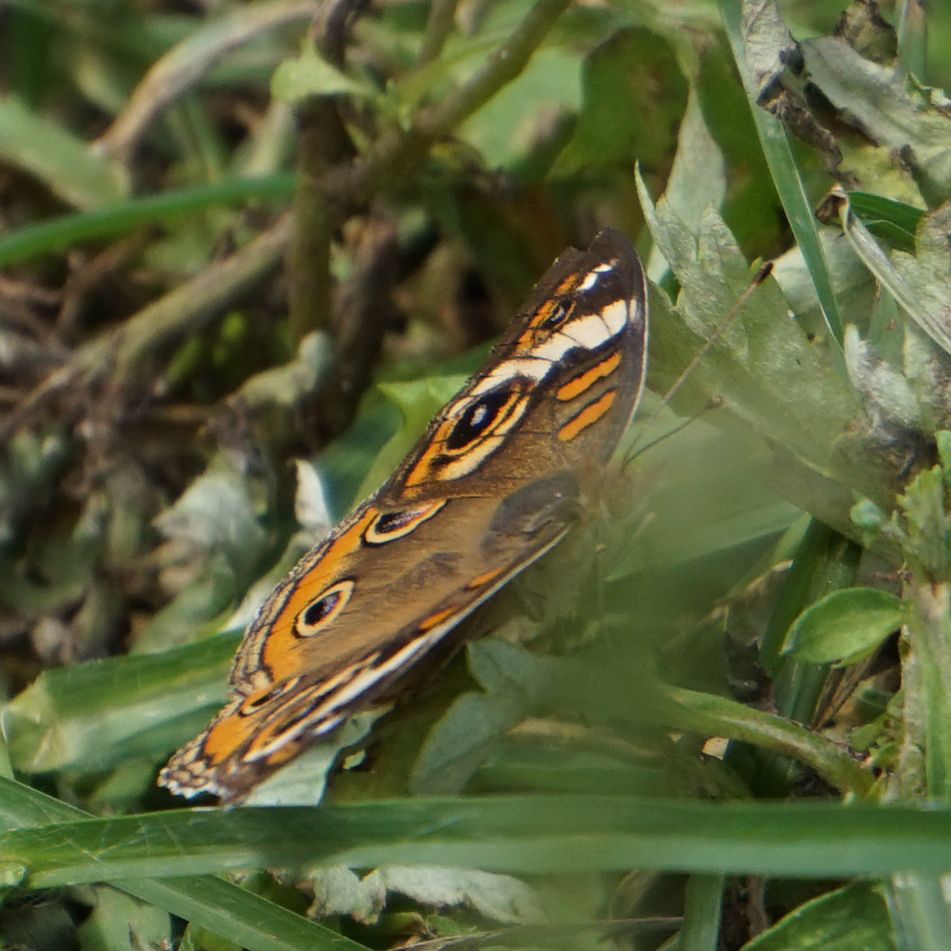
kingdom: Animalia
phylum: Arthropoda
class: Insecta
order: Lepidoptera
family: Nymphalidae
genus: Junonia
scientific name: Junonia coenia
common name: Common buckeye
